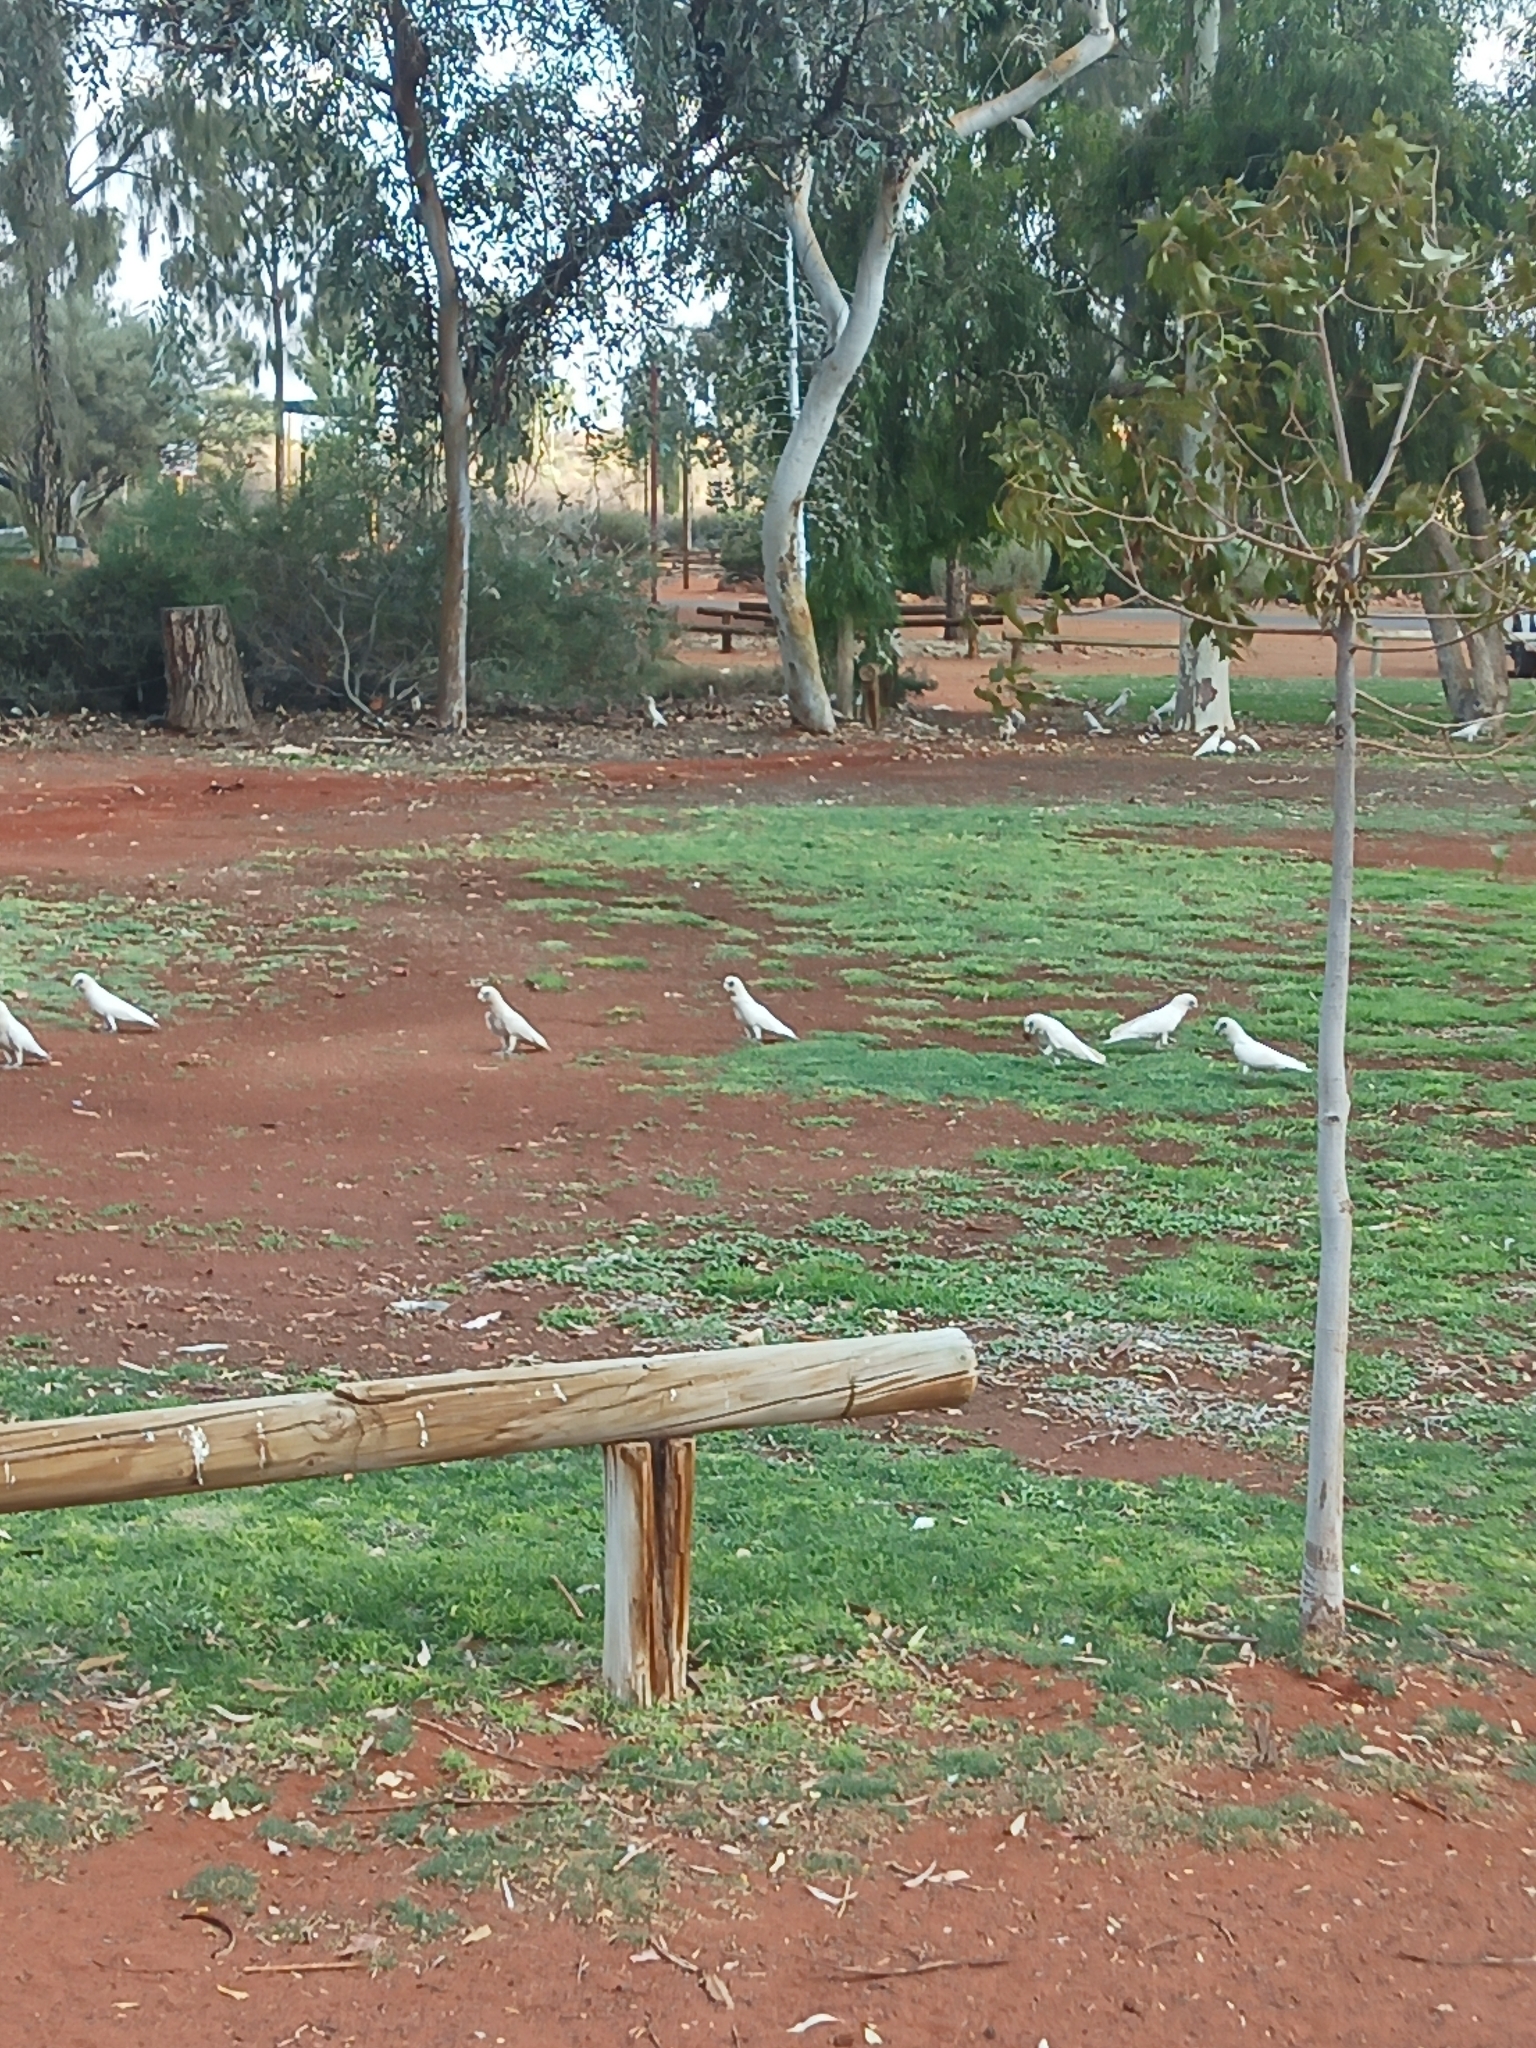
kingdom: Animalia
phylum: Chordata
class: Aves
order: Psittaciformes
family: Psittacidae
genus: Cacatua
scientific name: Cacatua sanguinea
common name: Little corella
